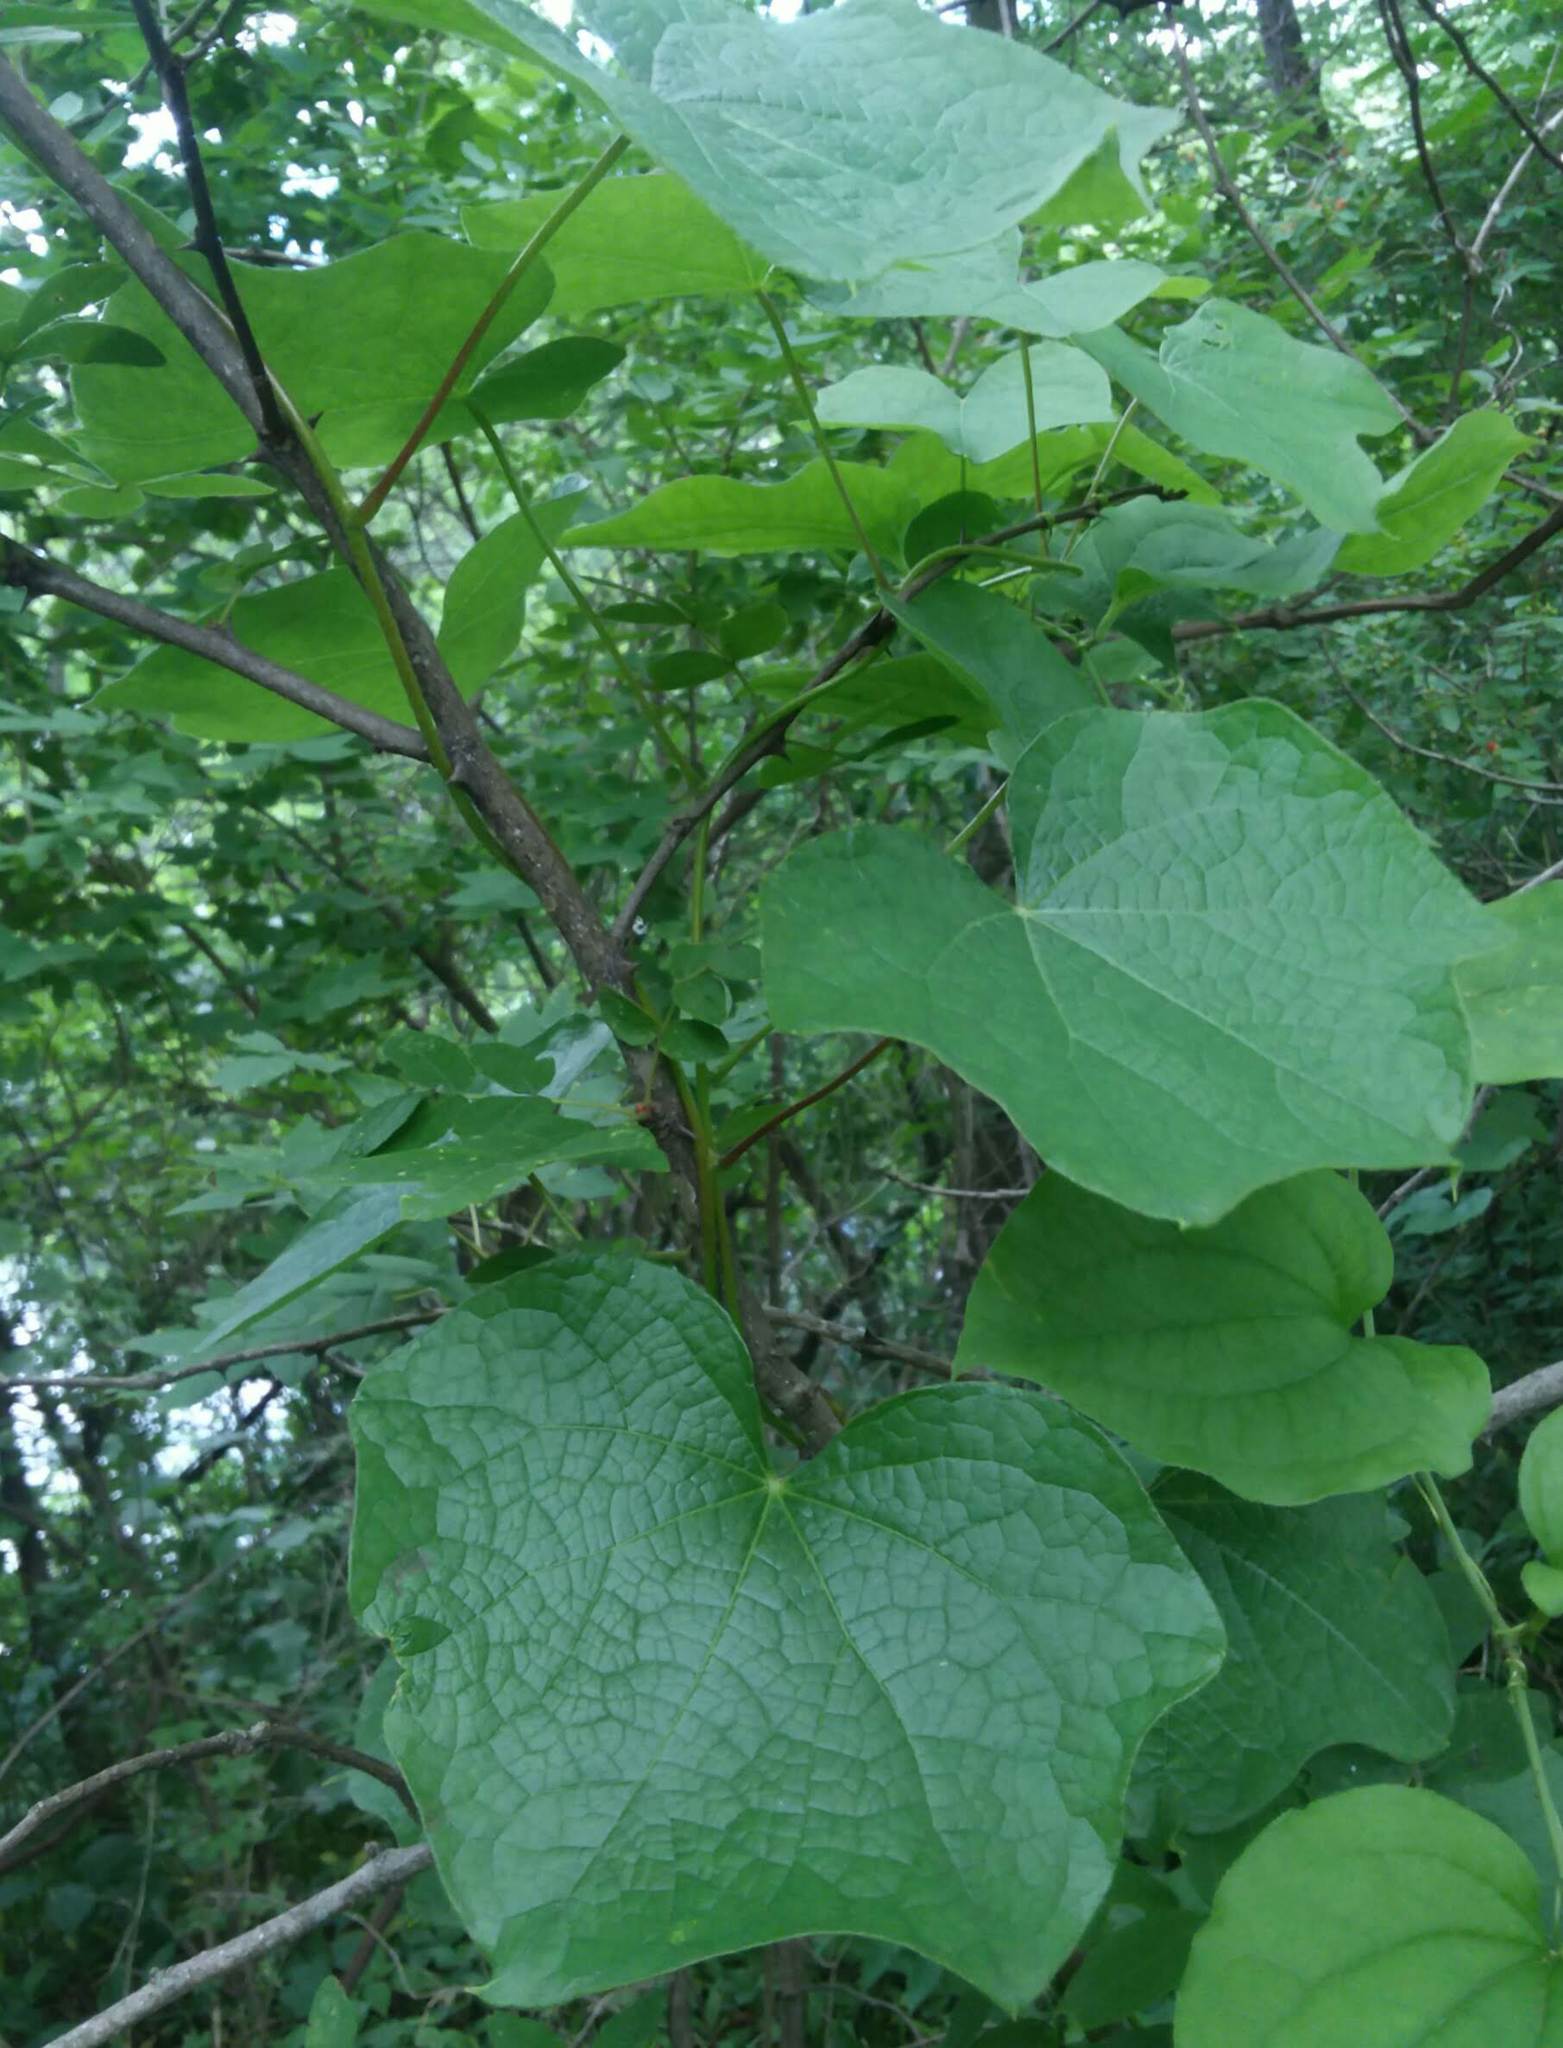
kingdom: Plantae
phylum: Tracheophyta
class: Magnoliopsida
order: Ranunculales
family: Menispermaceae
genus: Menispermum
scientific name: Menispermum canadense
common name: Moonseed
